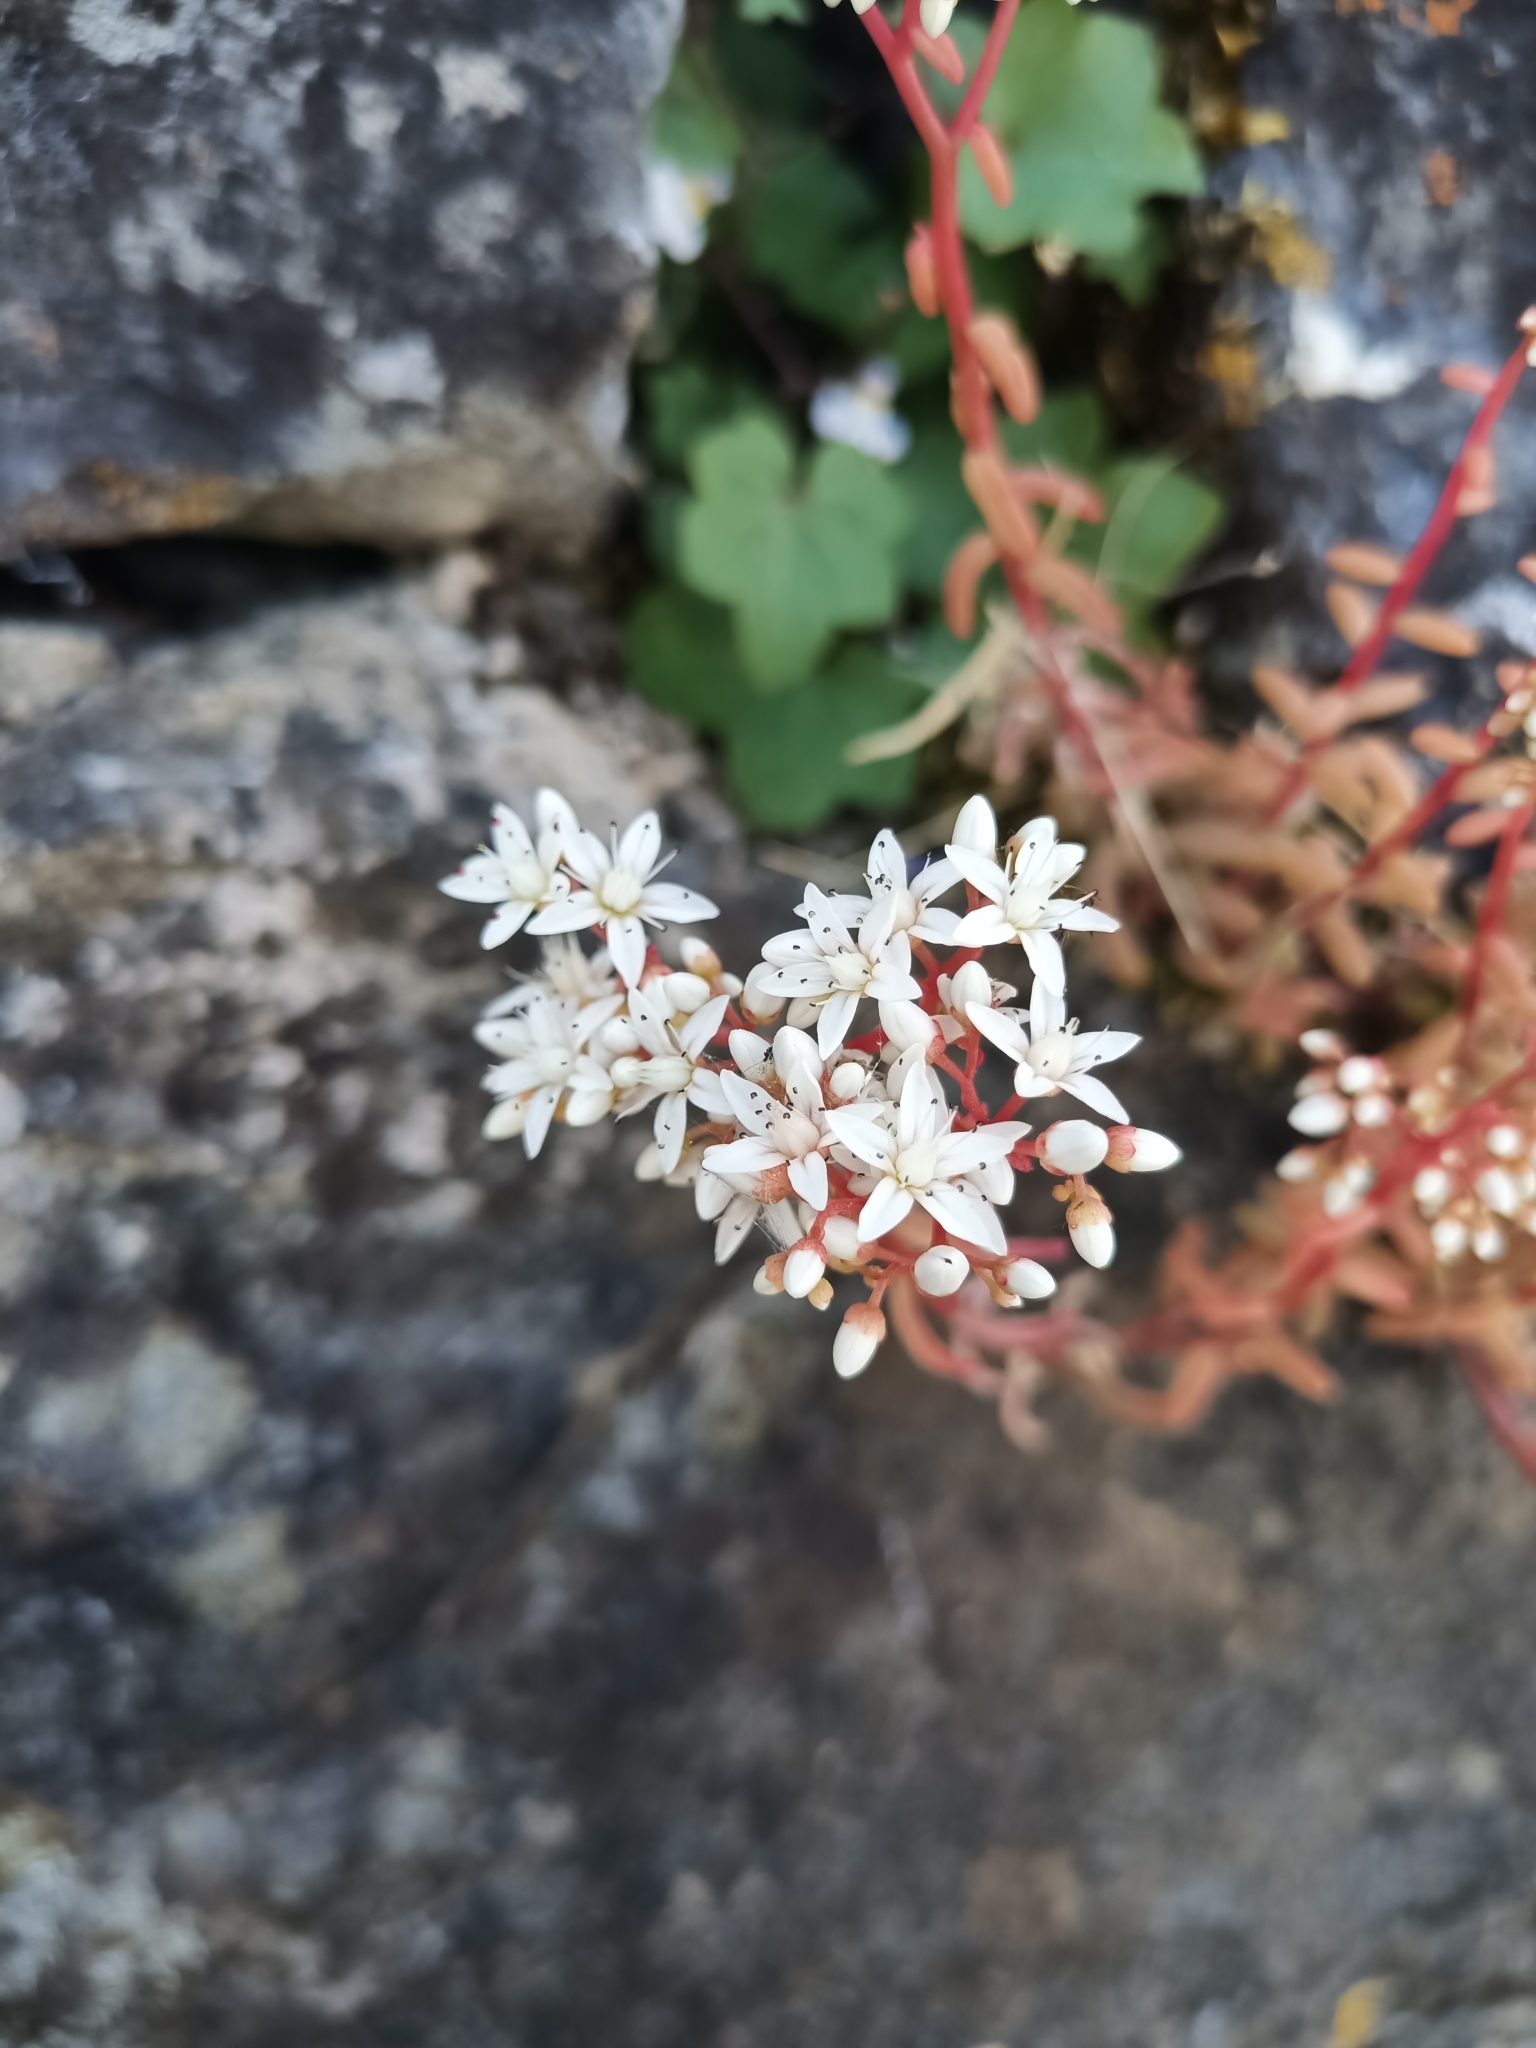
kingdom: Plantae
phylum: Tracheophyta
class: Magnoliopsida
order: Saxifragales
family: Crassulaceae
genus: Sedum
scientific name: Sedum album
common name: White stonecrop
